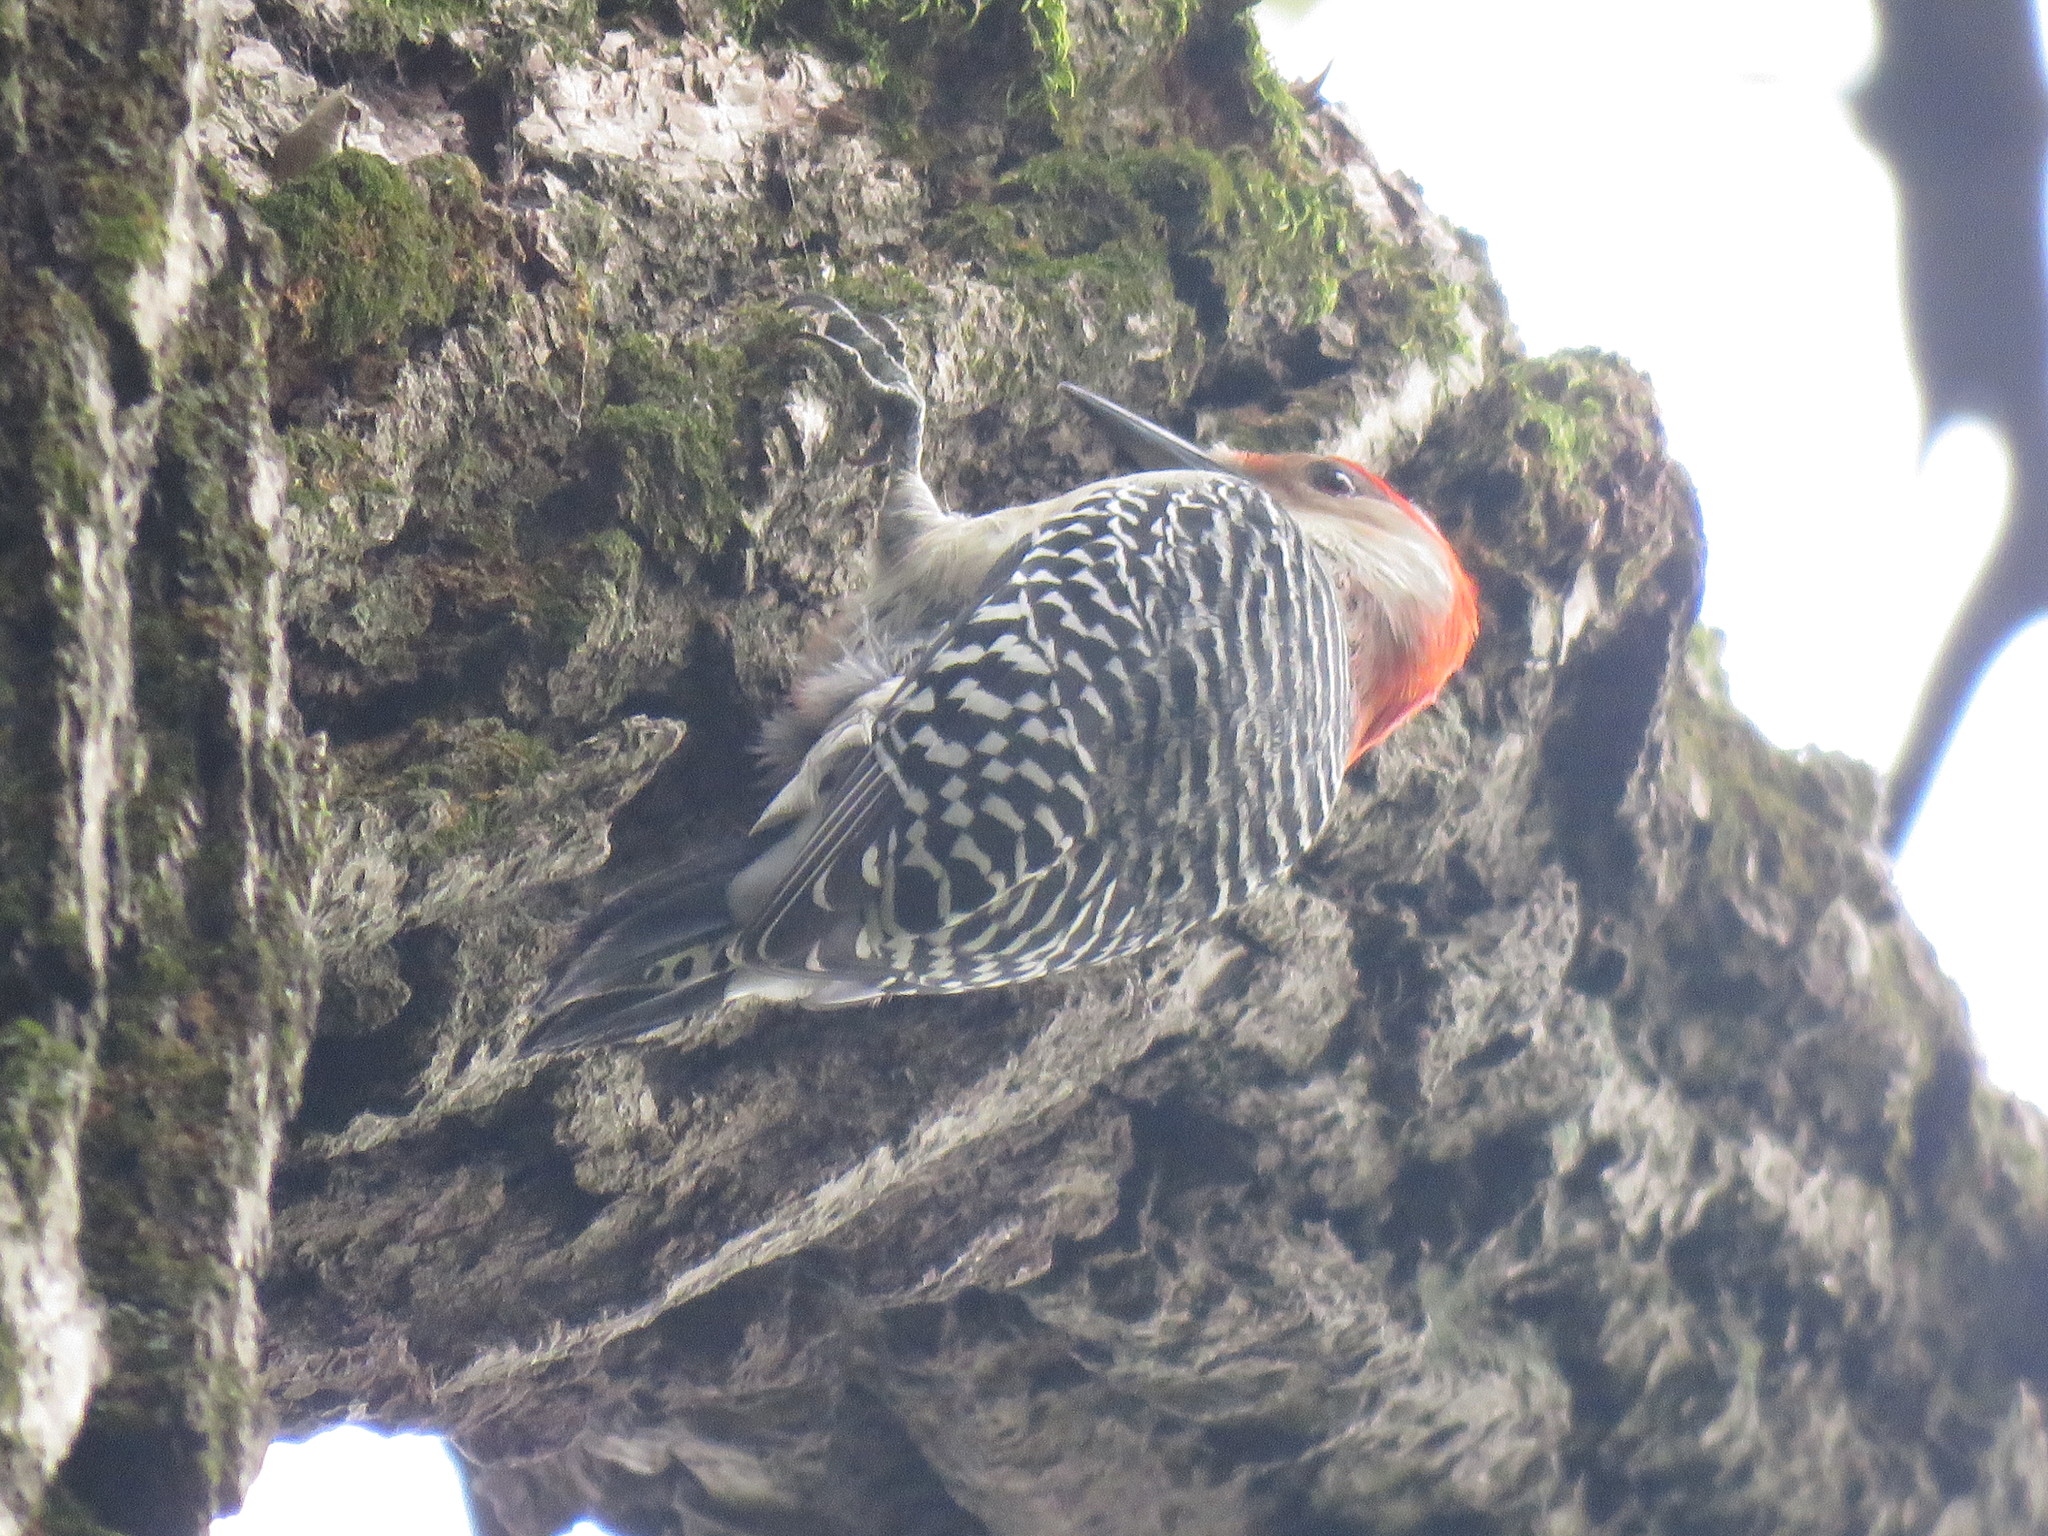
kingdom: Animalia
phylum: Chordata
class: Aves
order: Piciformes
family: Picidae
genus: Melanerpes
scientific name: Melanerpes carolinus
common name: Red-bellied woodpecker
